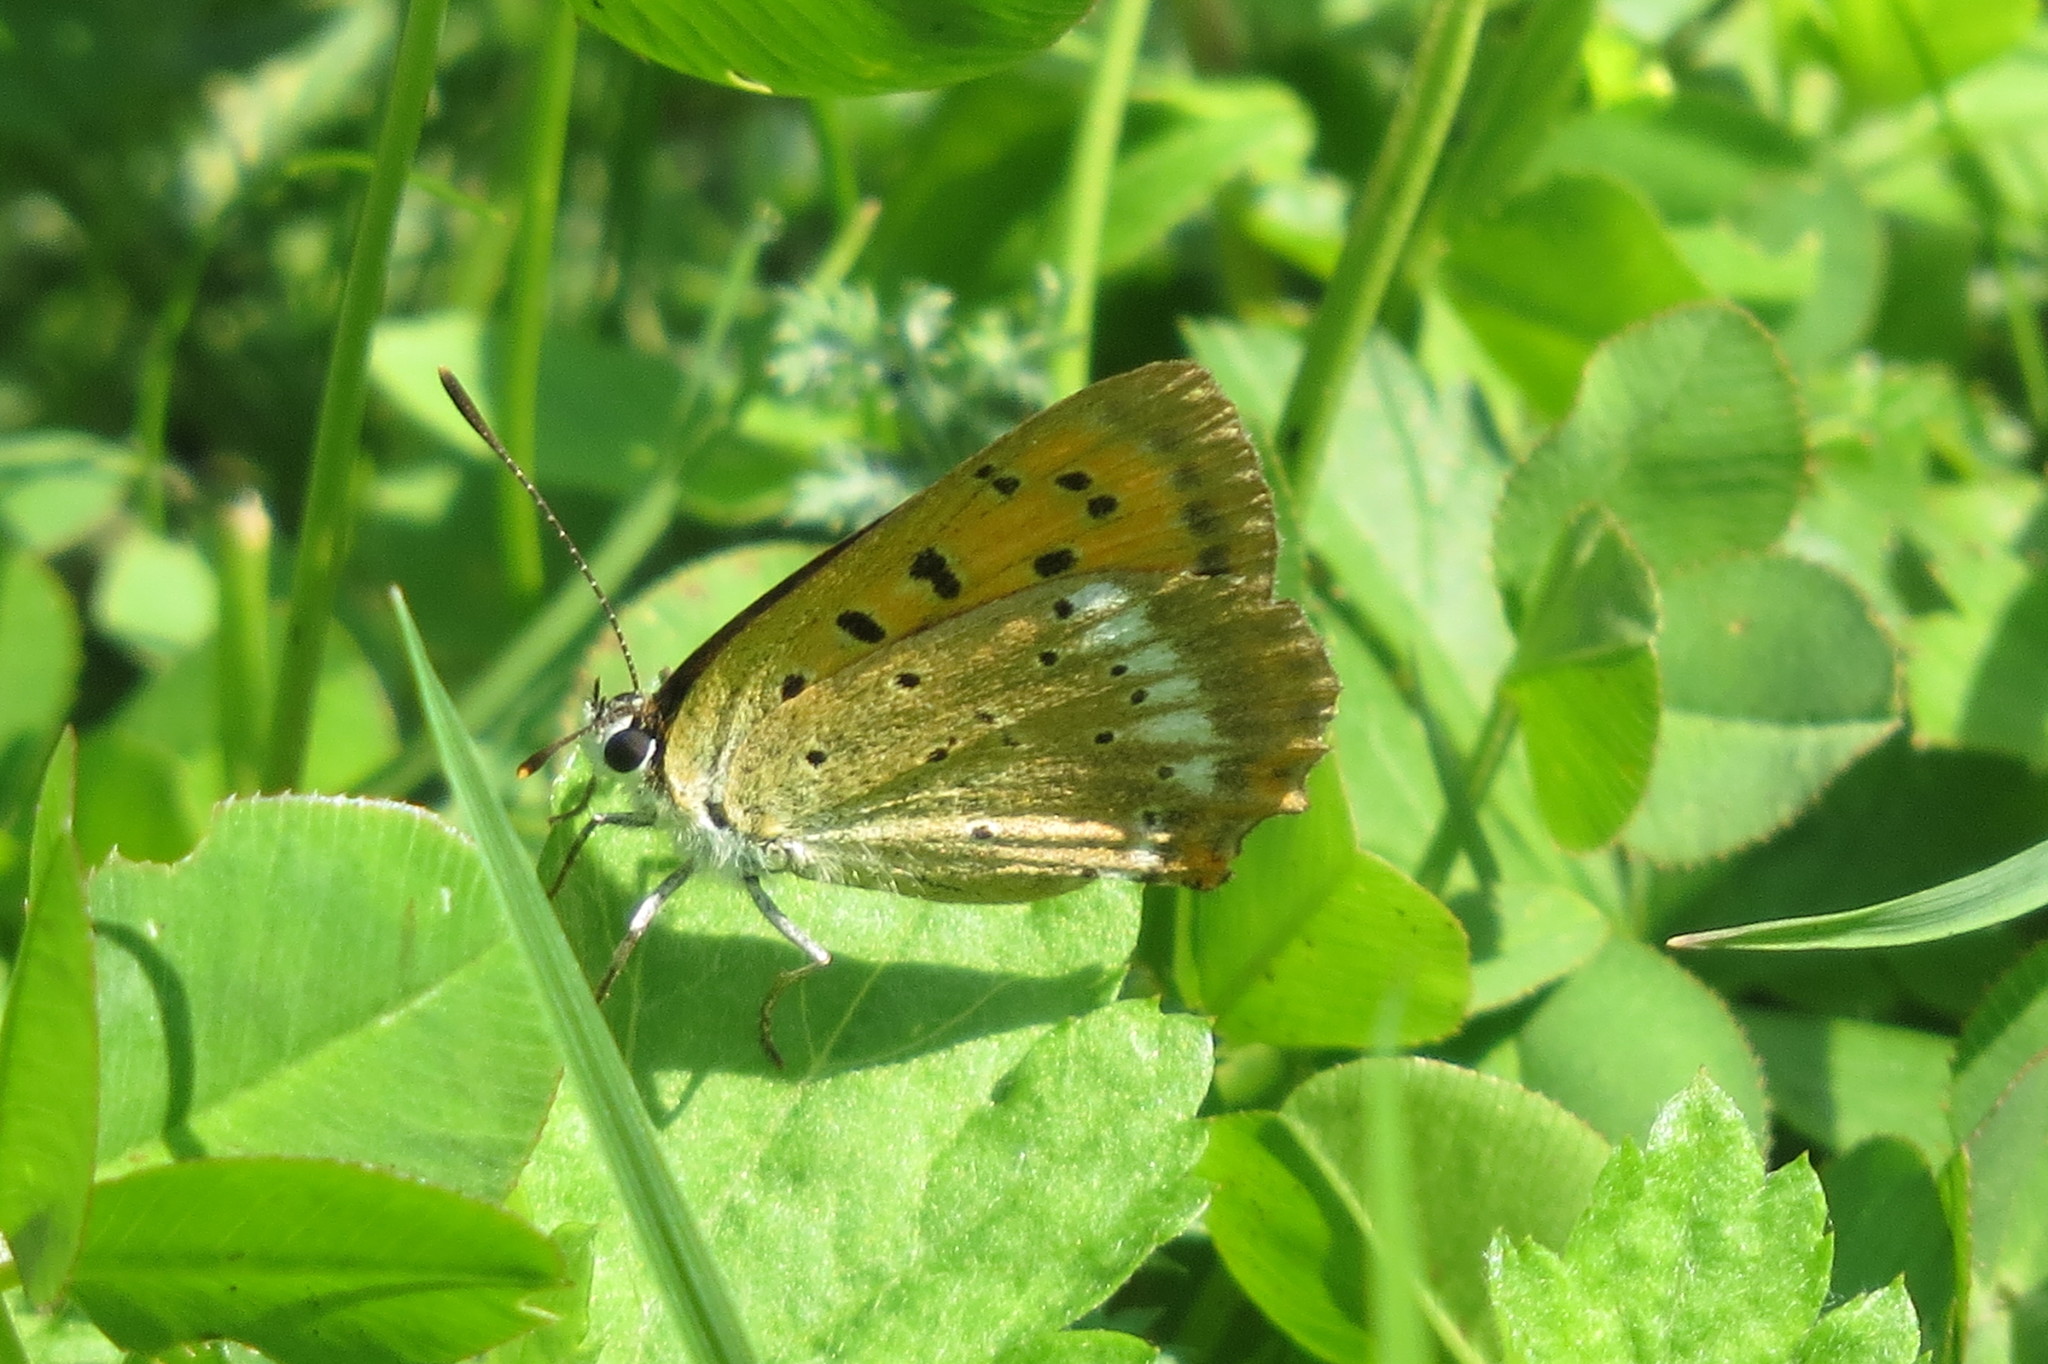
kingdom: Animalia
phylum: Arthropoda
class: Insecta
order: Lepidoptera
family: Lycaenidae
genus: Lycaena
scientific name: Lycaena virgaureae
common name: Scarce copper
